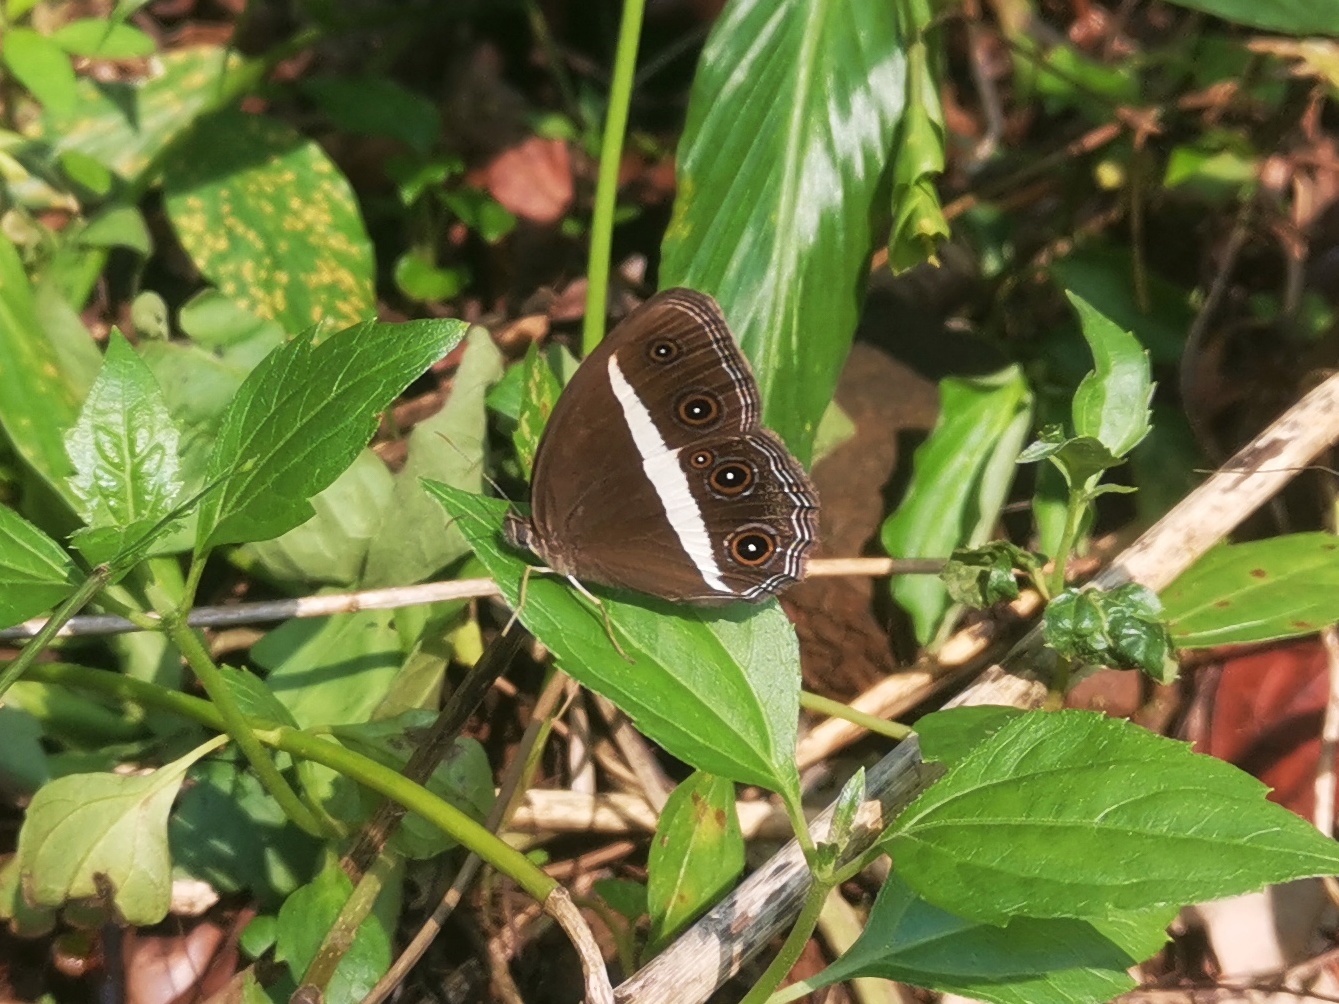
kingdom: Animalia
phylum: Arthropoda
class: Insecta
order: Lepidoptera
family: Nymphalidae
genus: Orsotriaena
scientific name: Orsotriaena medus
